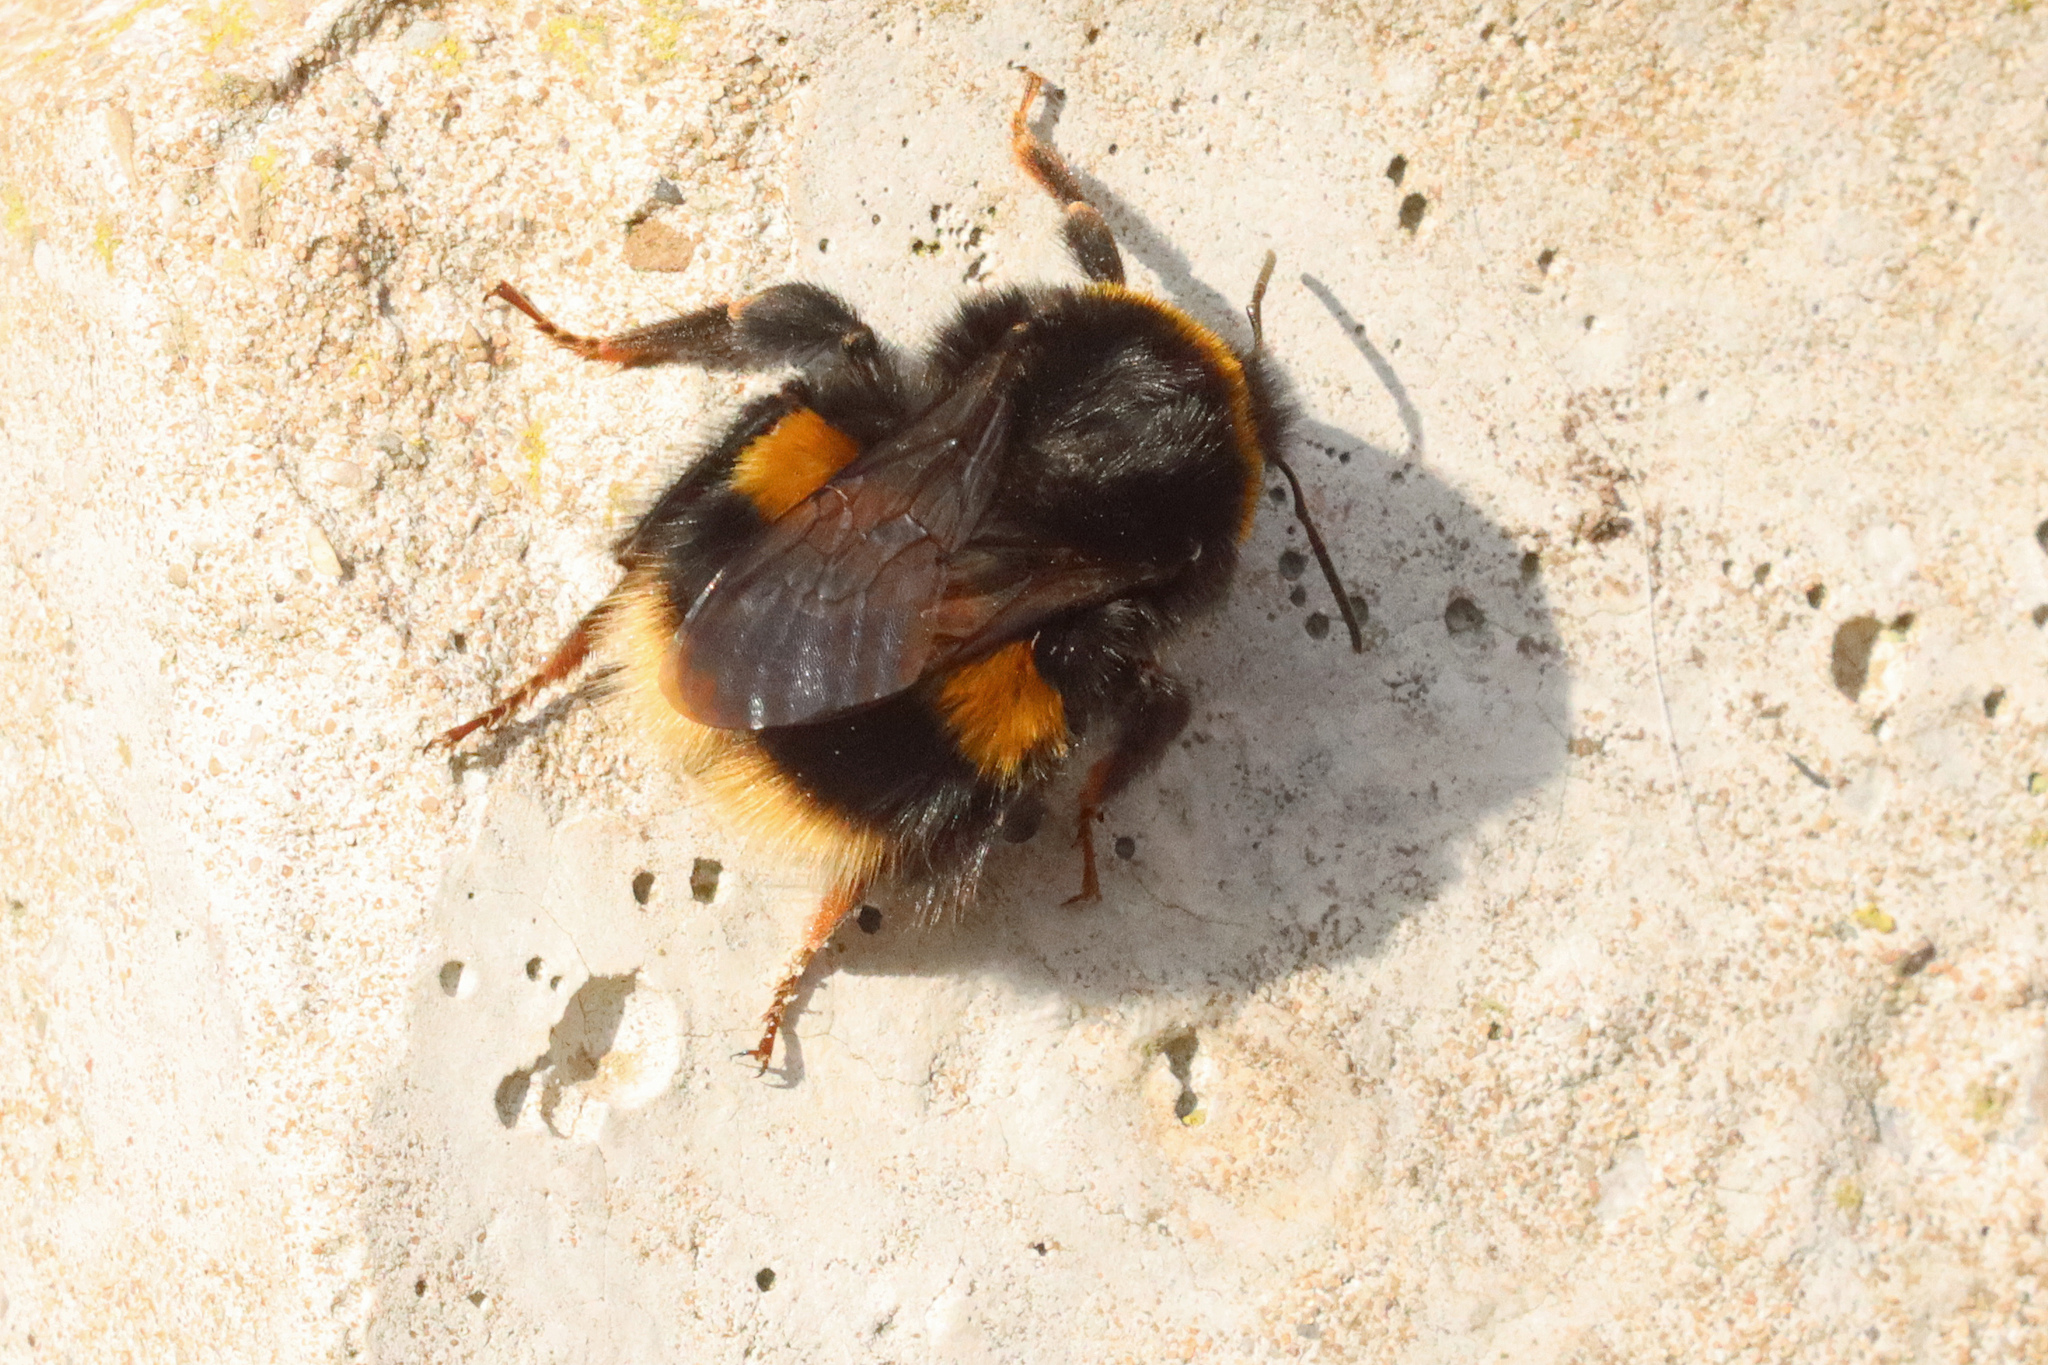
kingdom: Animalia
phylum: Arthropoda
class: Insecta
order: Hymenoptera
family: Apidae
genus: Bombus
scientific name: Bombus terrestris
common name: Buff-tailed bumblebee
